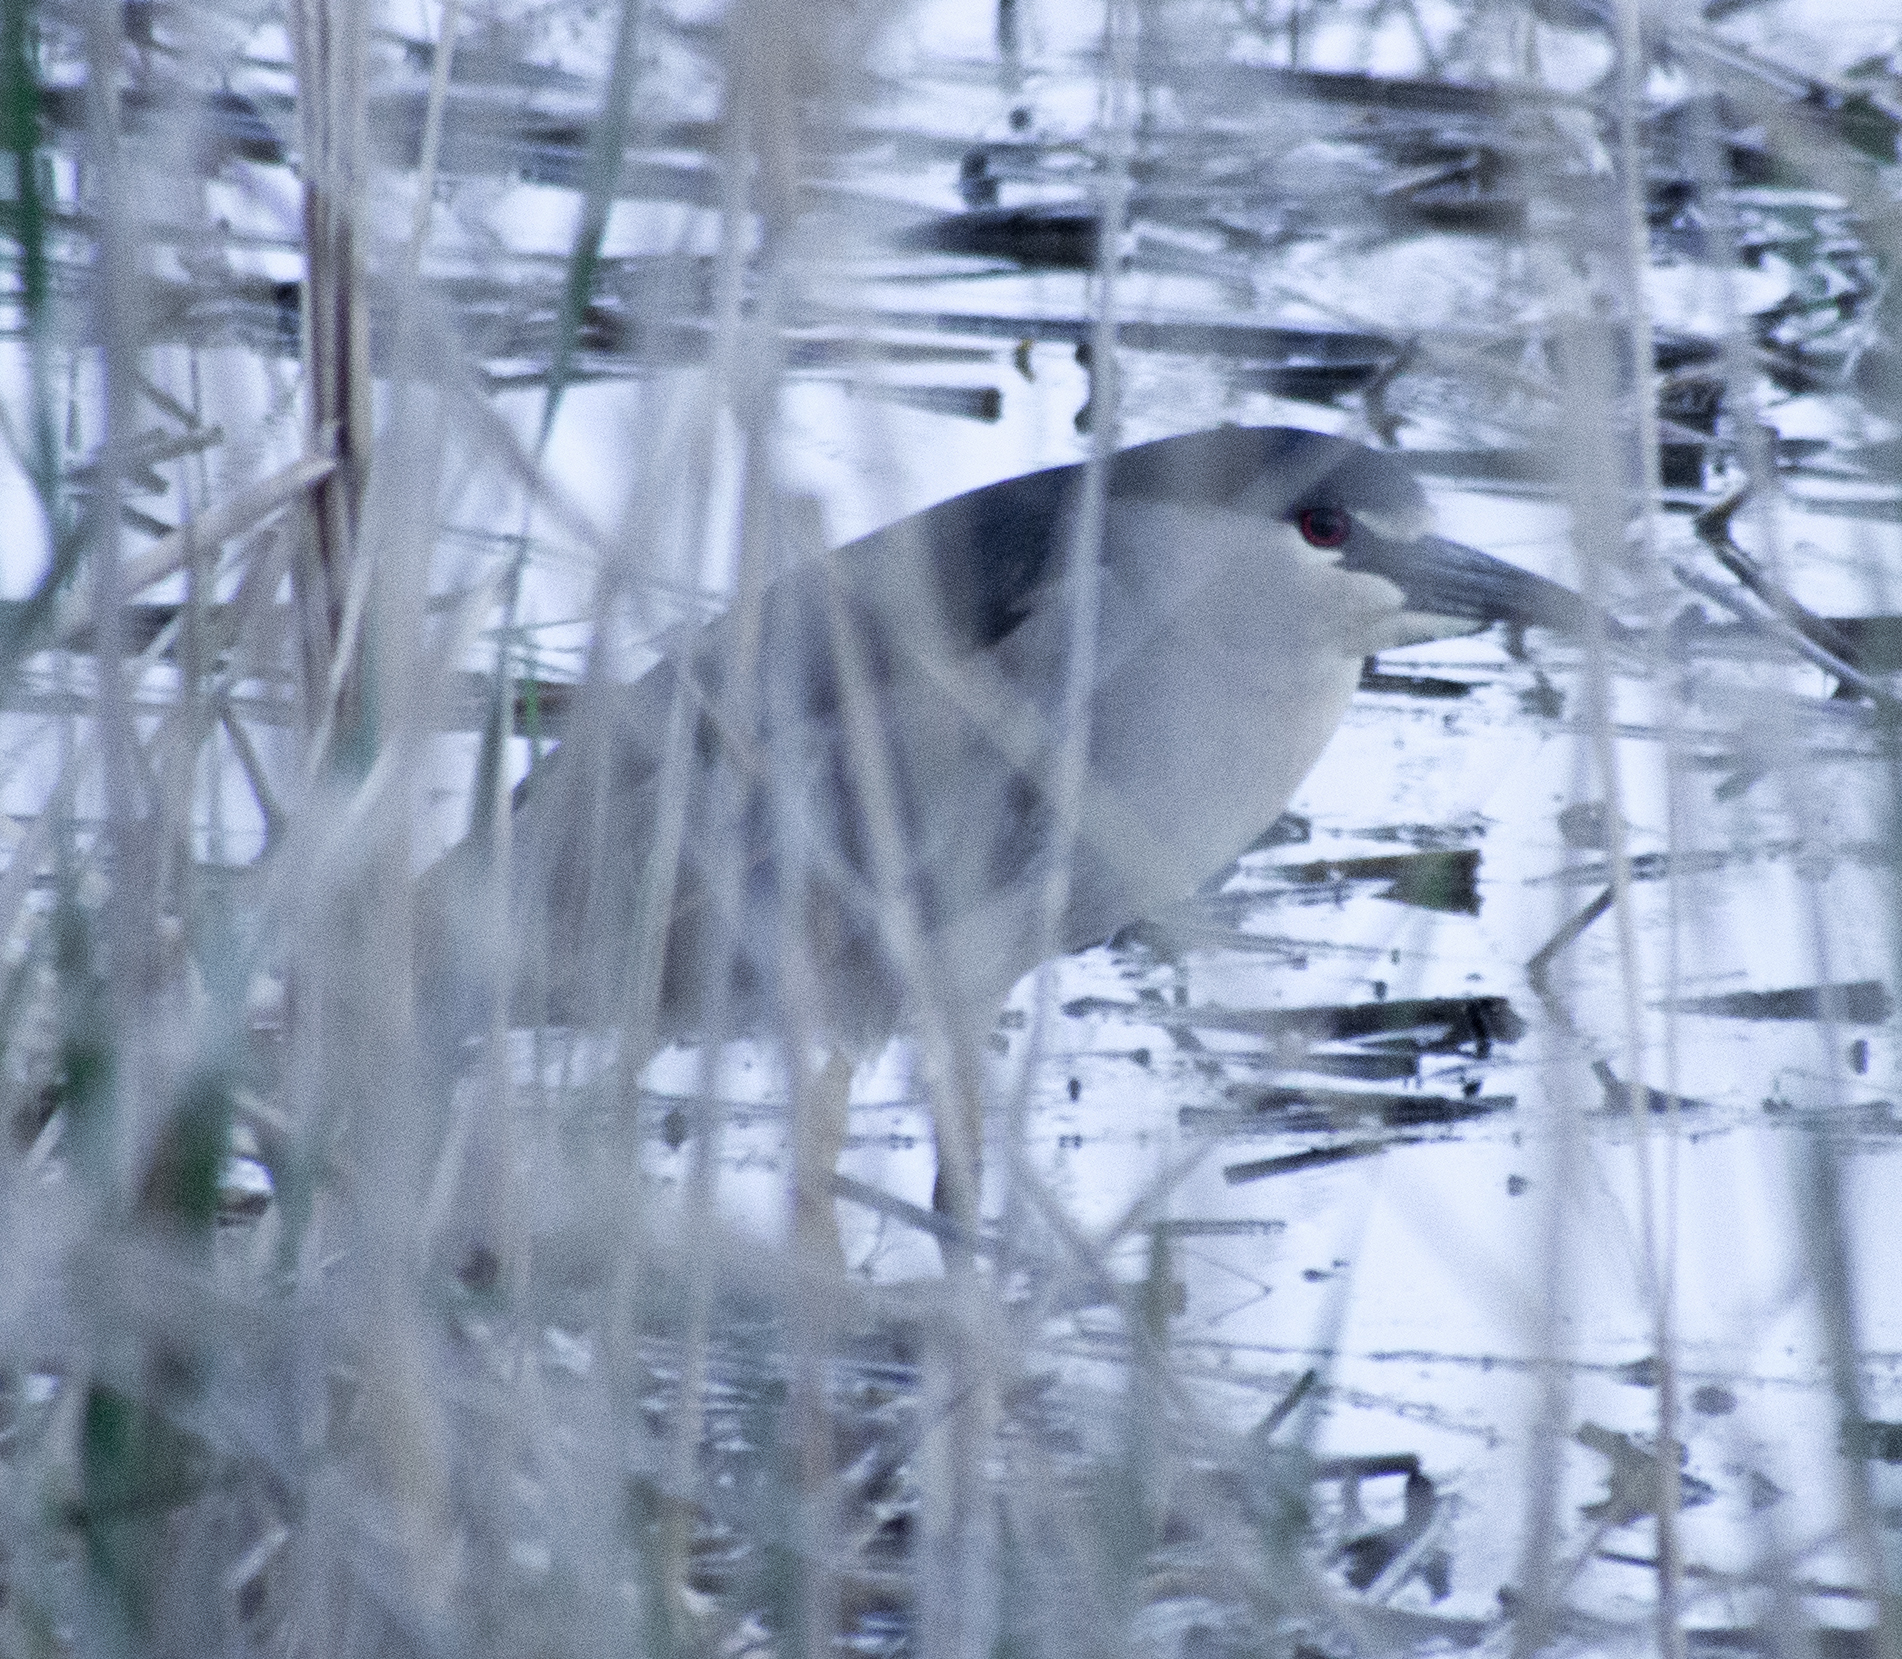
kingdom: Animalia
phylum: Chordata
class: Aves
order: Pelecaniformes
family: Ardeidae
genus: Nycticorax
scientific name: Nycticorax nycticorax
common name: Black-crowned night heron
